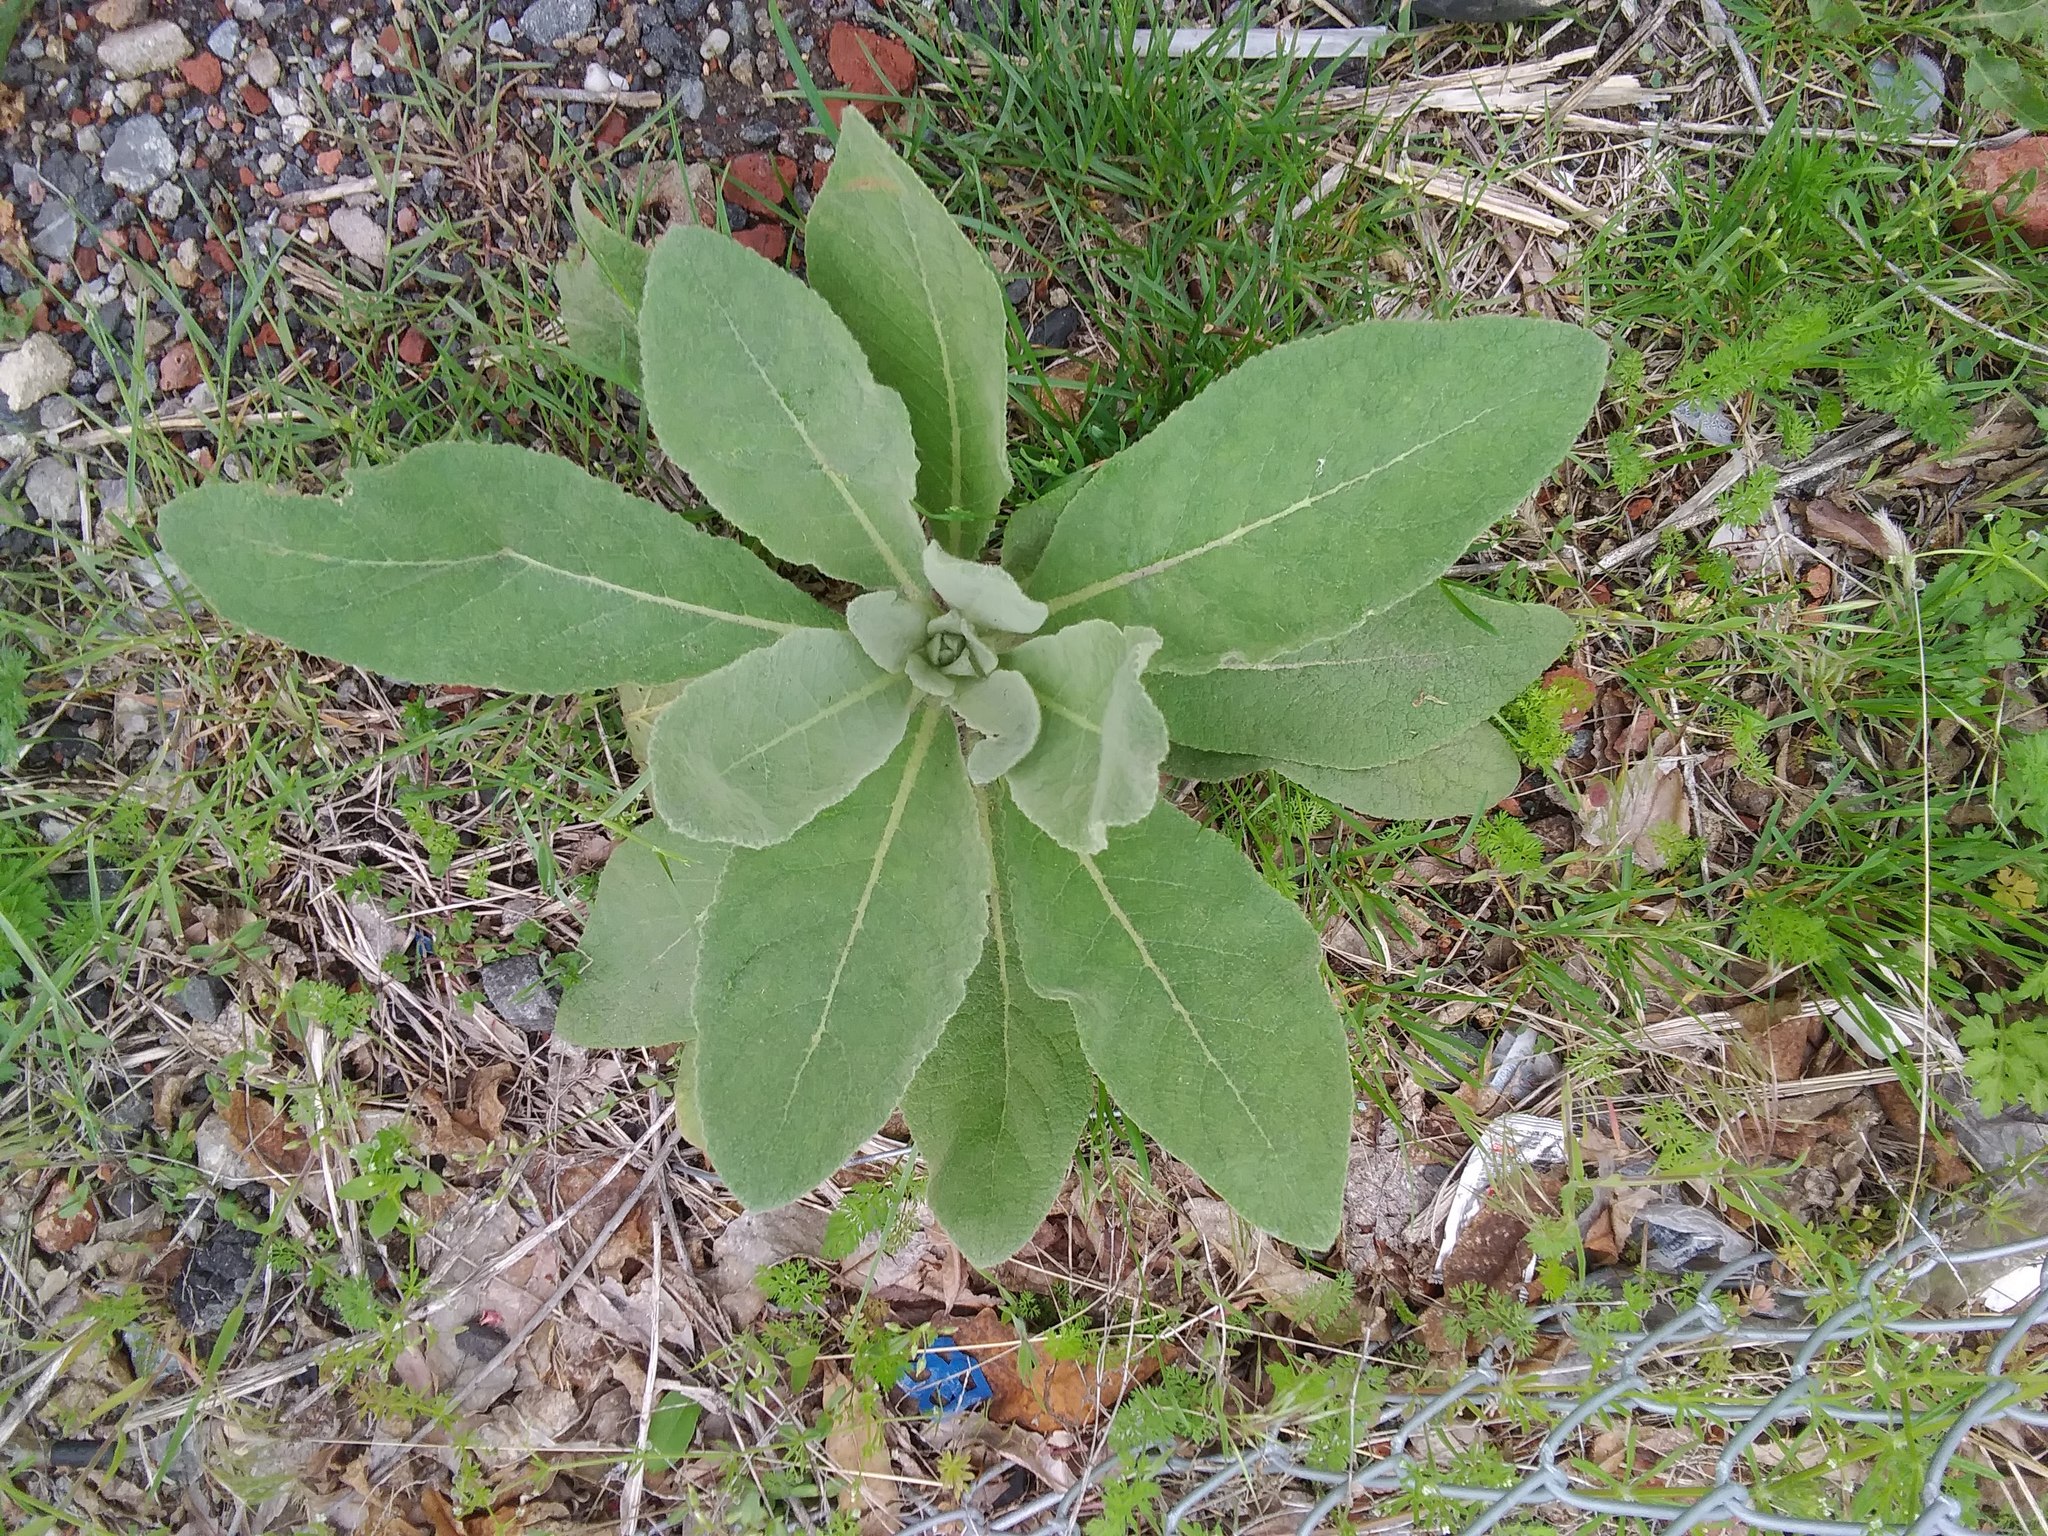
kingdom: Plantae
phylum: Tracheophyta
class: Magnoliopsida
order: Lamiales
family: Scrophulariaceae
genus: Verbascum
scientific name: Verbascum thapsus
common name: Common mullein
